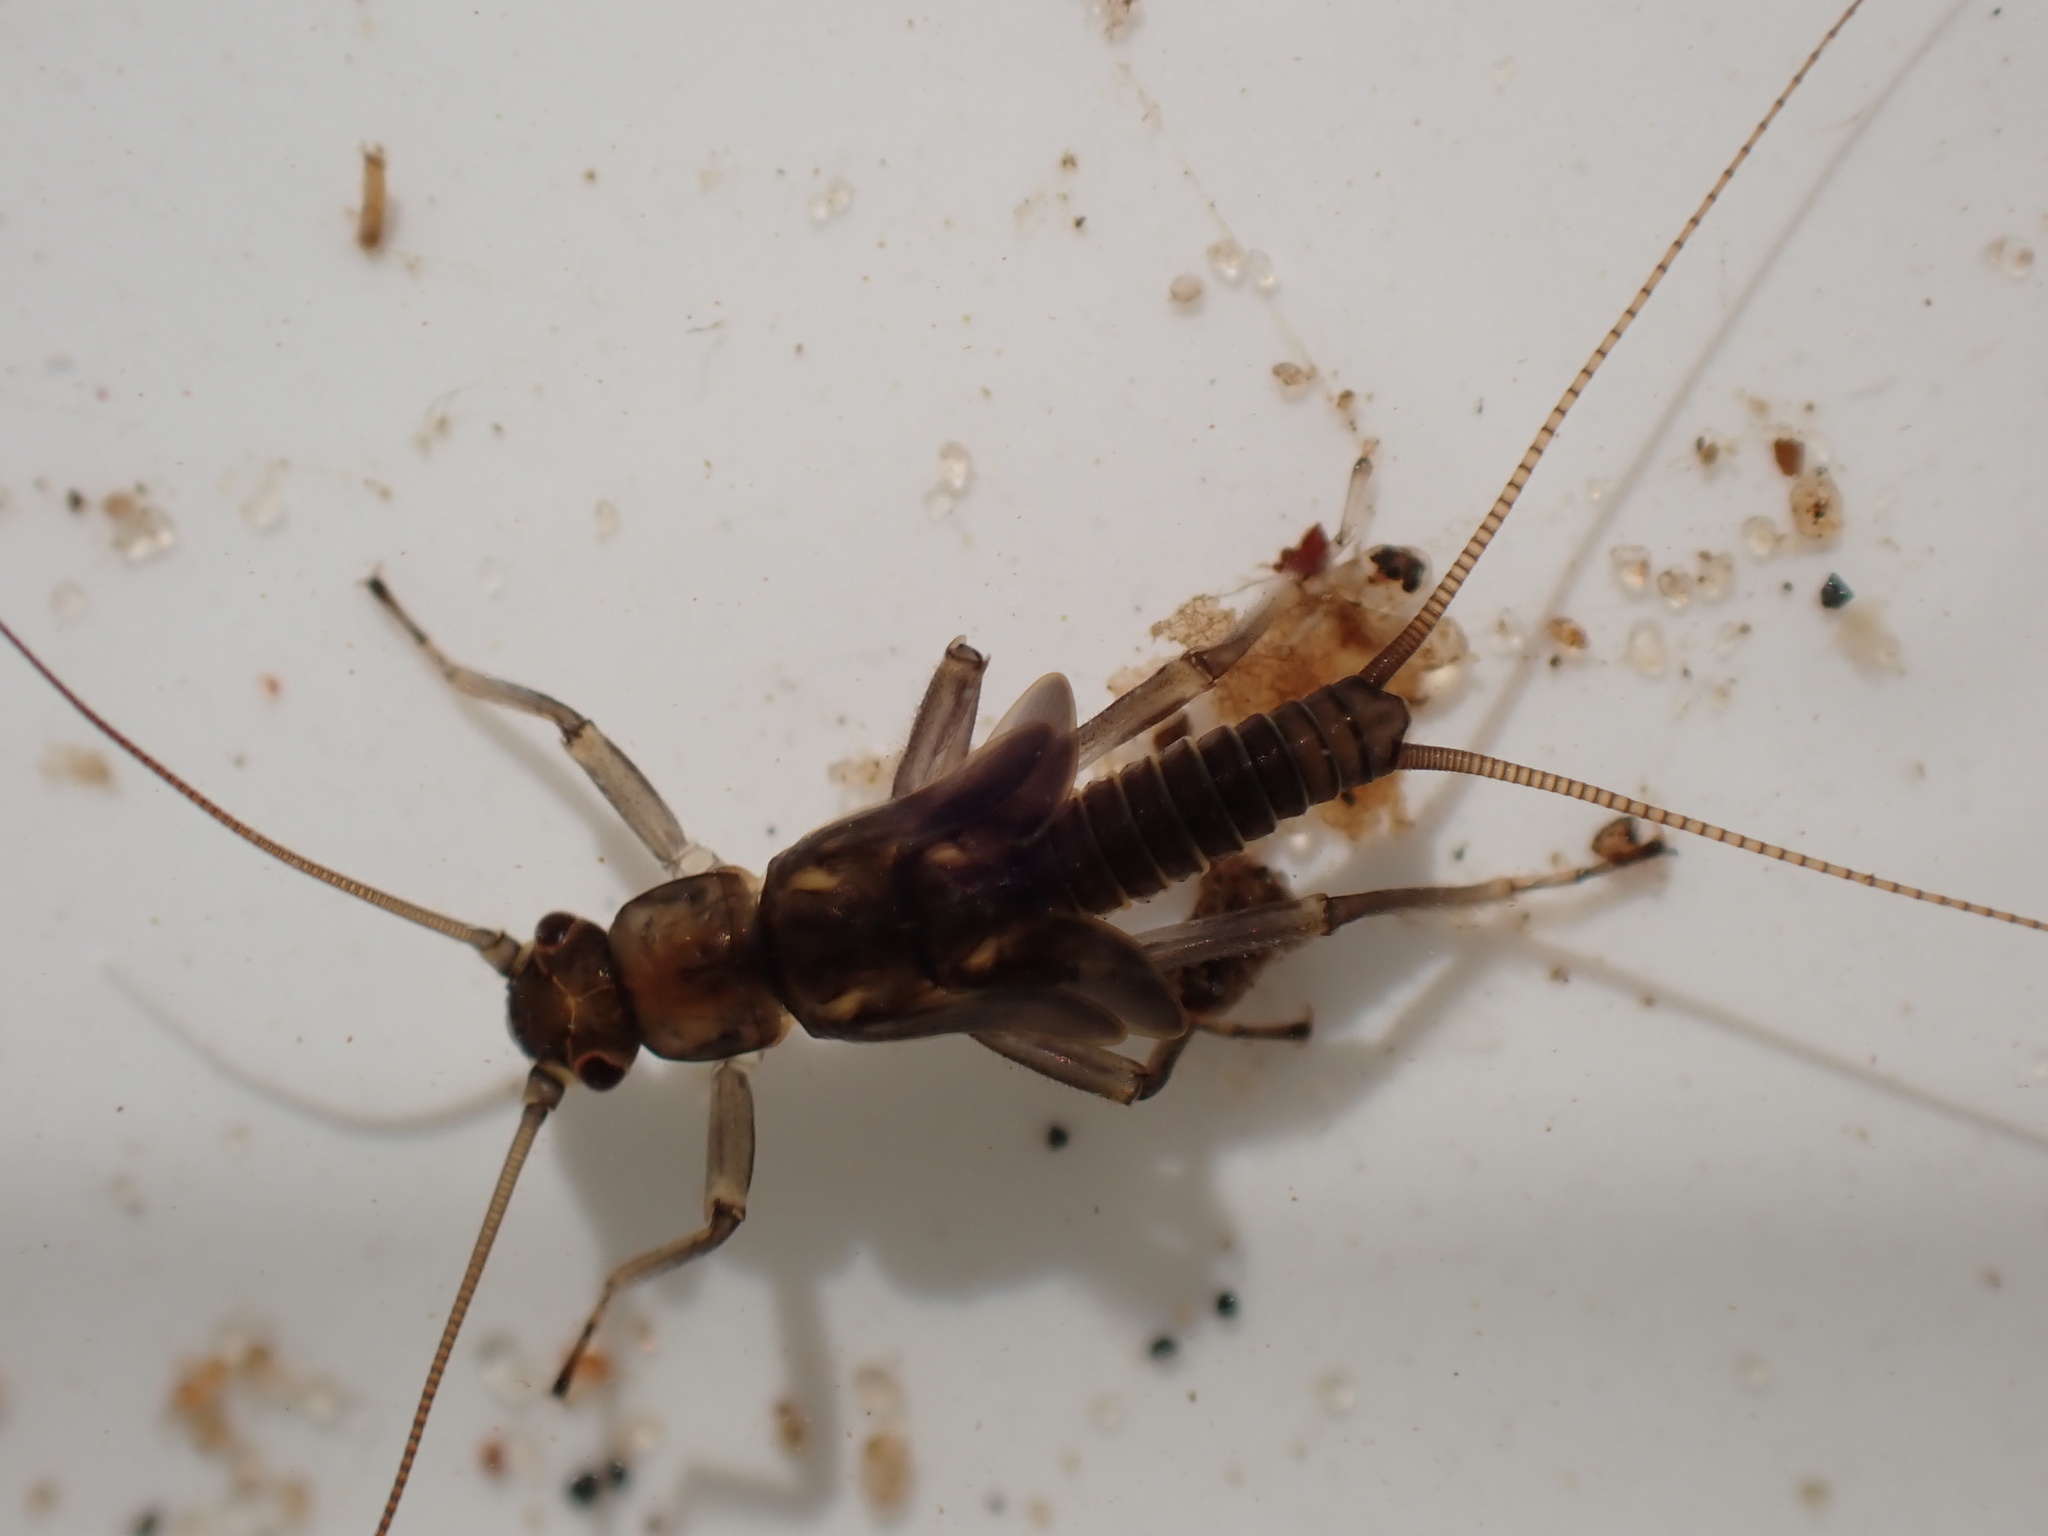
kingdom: Animalia
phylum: Arthropoda
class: Insecta
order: Plecoptera
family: Taeniopterygidae
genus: Brachyptera
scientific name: Brachyptera risi
